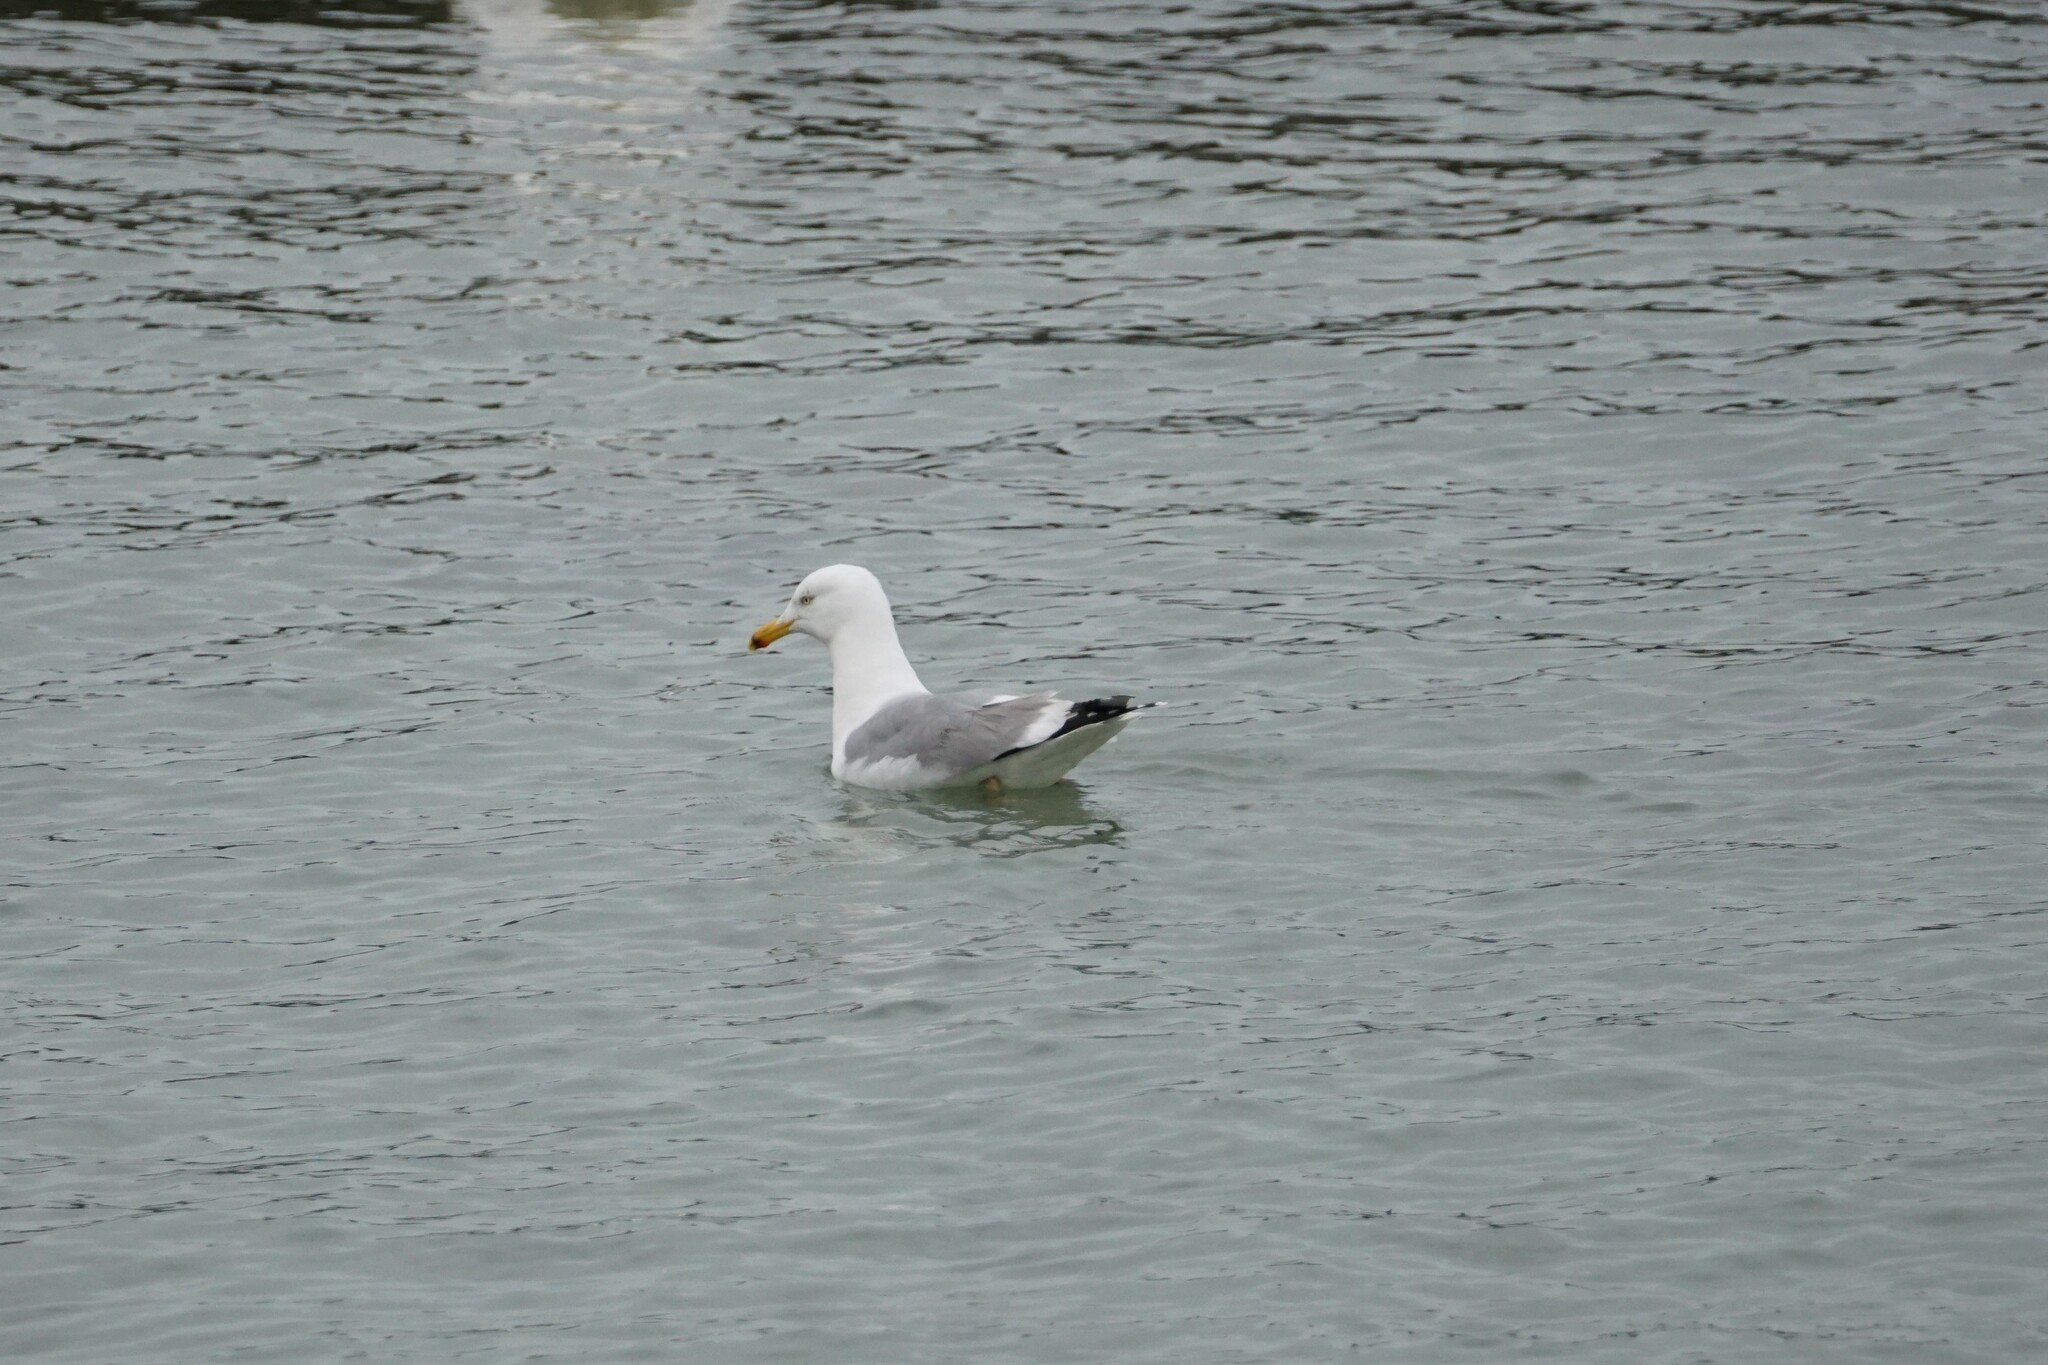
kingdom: Animalia
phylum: Chordata
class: Aves
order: Charadriiformes
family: Laridae
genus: Larus
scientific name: Larus argentatus
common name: Herring gull
